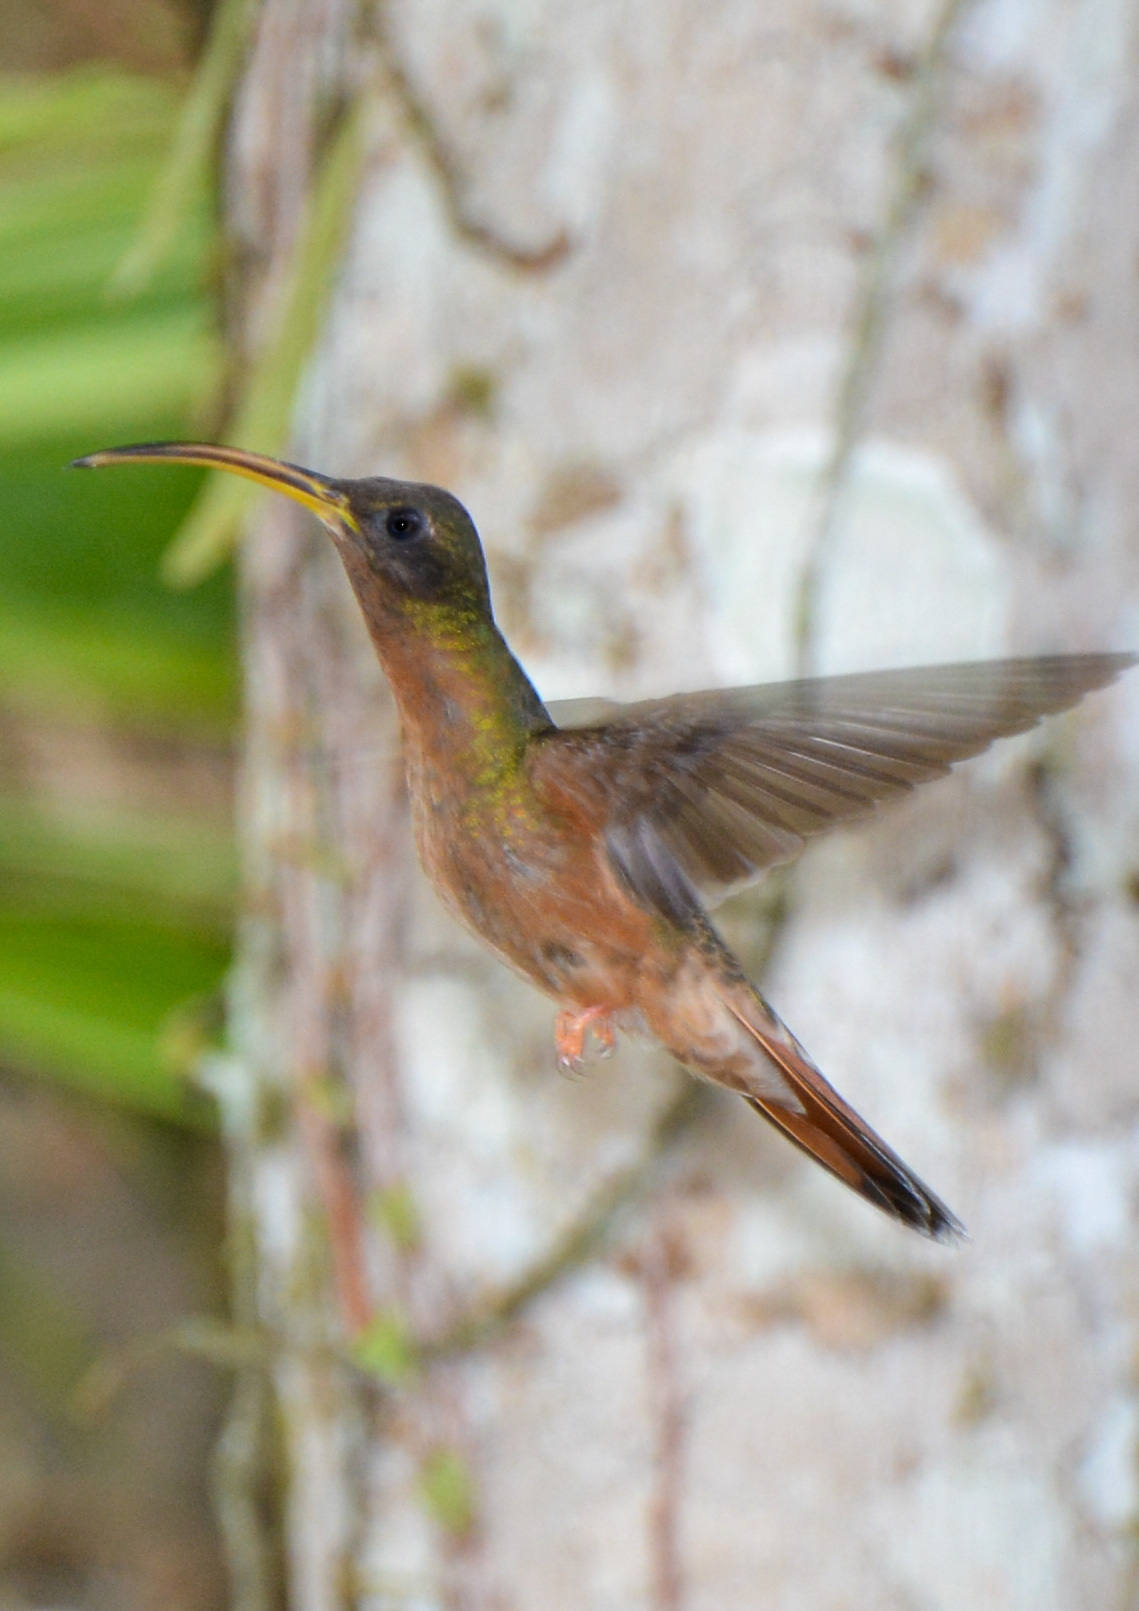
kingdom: Animalia
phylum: Chordata
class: Aves
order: Apodiformes
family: Trochilidae
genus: Glaucis
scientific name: Glaucis hirsutus
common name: Rufous-breasted hermit
